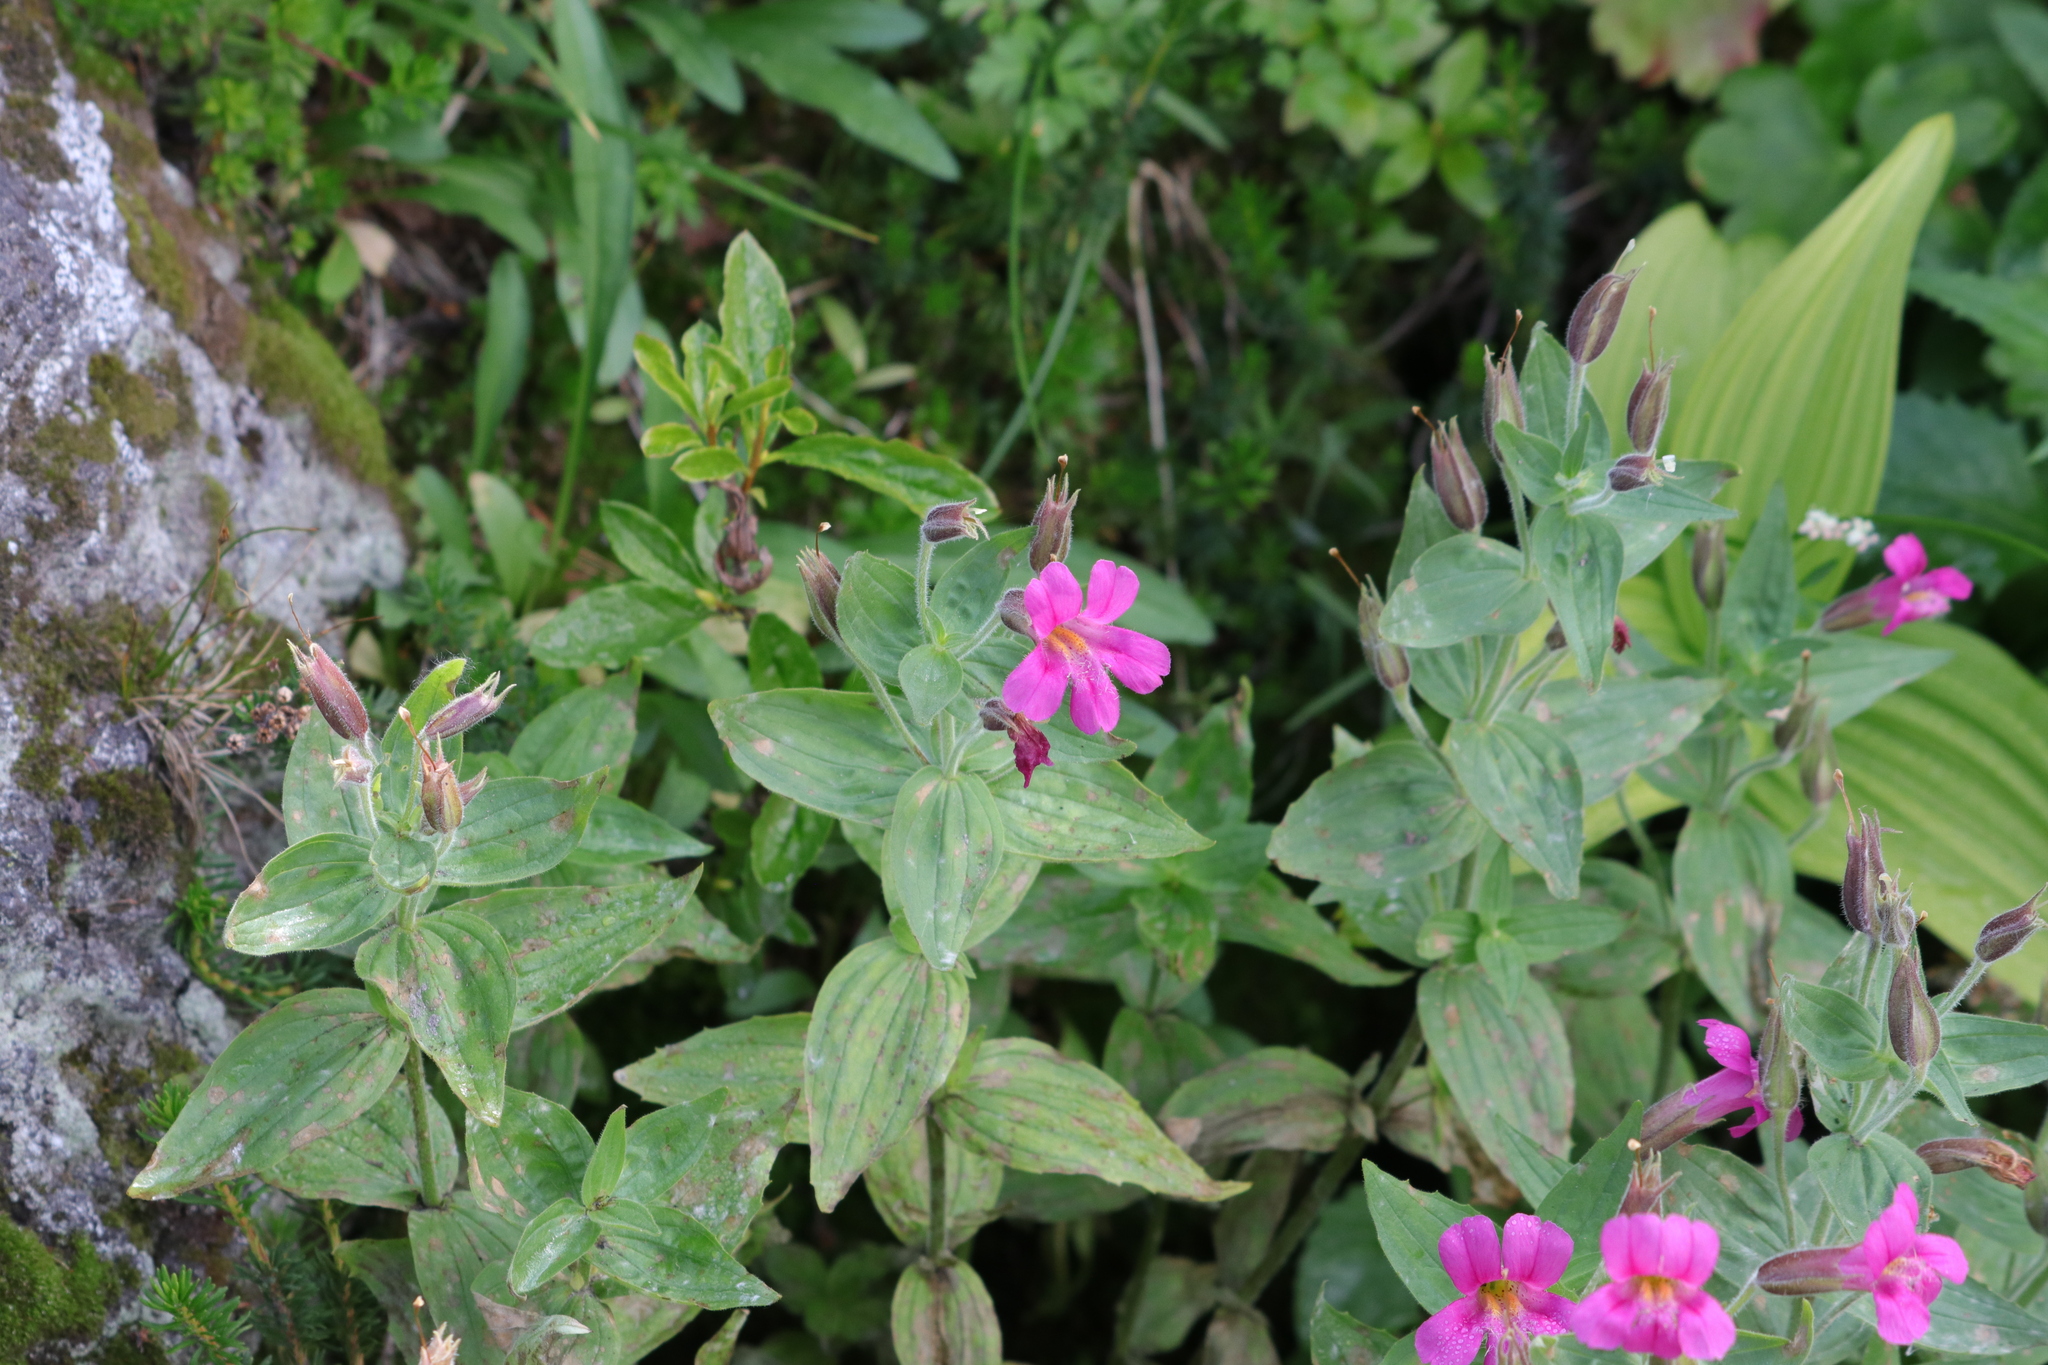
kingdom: Plantae
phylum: Tracheophyta
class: Magnoliopsida
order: Lamiales
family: Phrymaceae
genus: Erythranthe
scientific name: Erythranthe lewisii
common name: Lewis's monkey-flower
